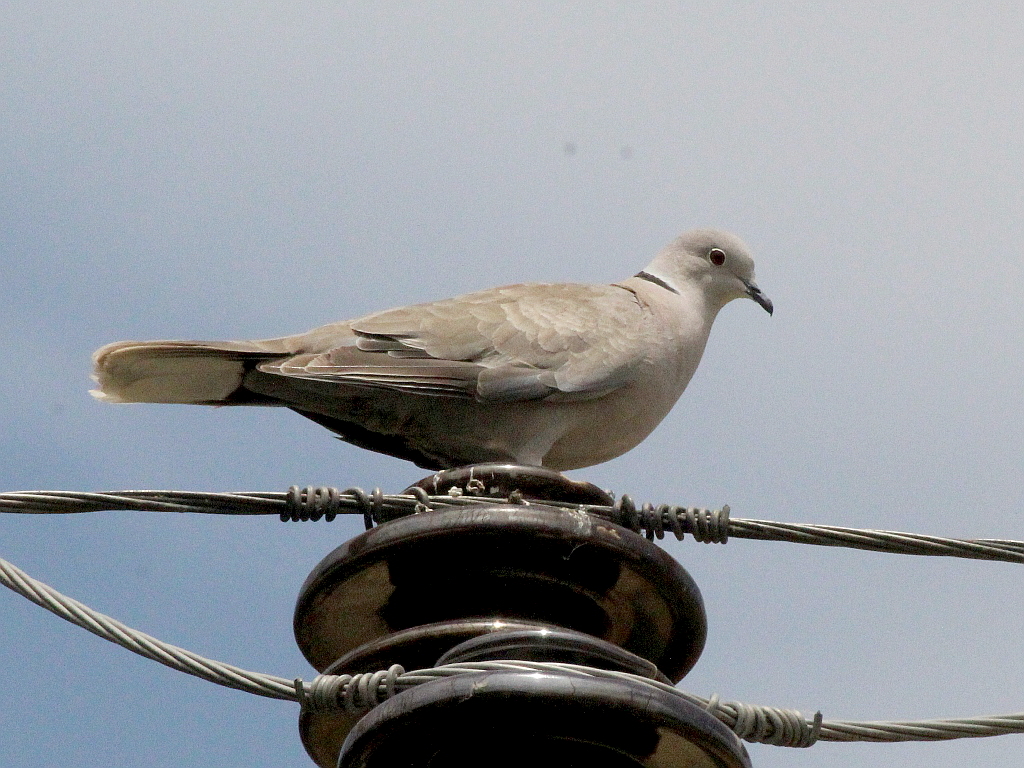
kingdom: Animalia
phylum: Chordata
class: Aves
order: Columbiformes
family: Columbidae
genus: Streptopelia
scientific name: Streptopelia decaocto
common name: Eurasian collared dove
